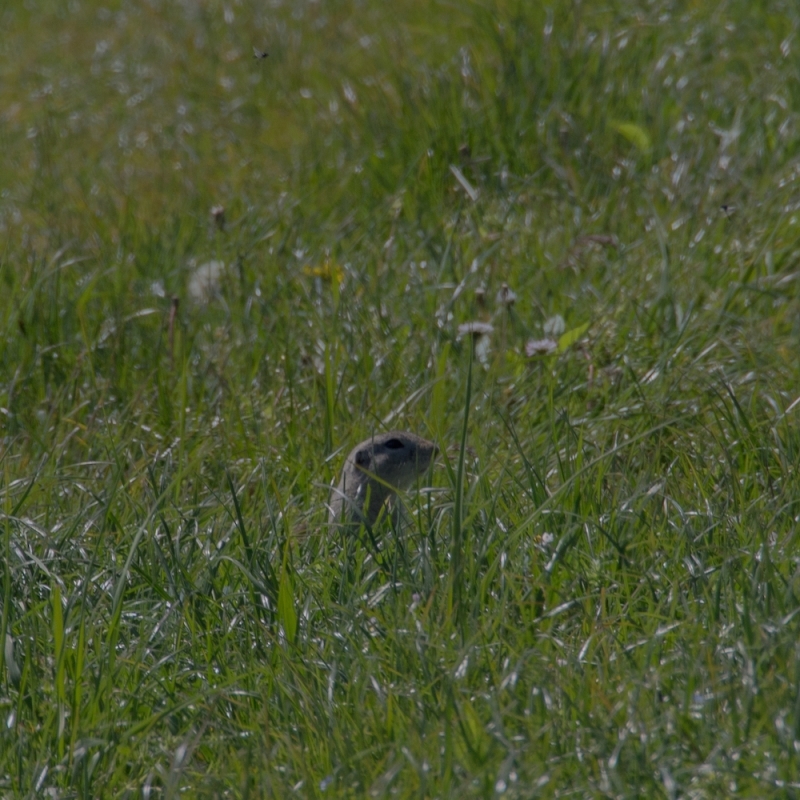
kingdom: Animalia
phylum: Chordata
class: Mammalia
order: Rodentia
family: Sciuridae
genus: Spermophilus
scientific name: Spermophilus citellus
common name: European ground squirrel
